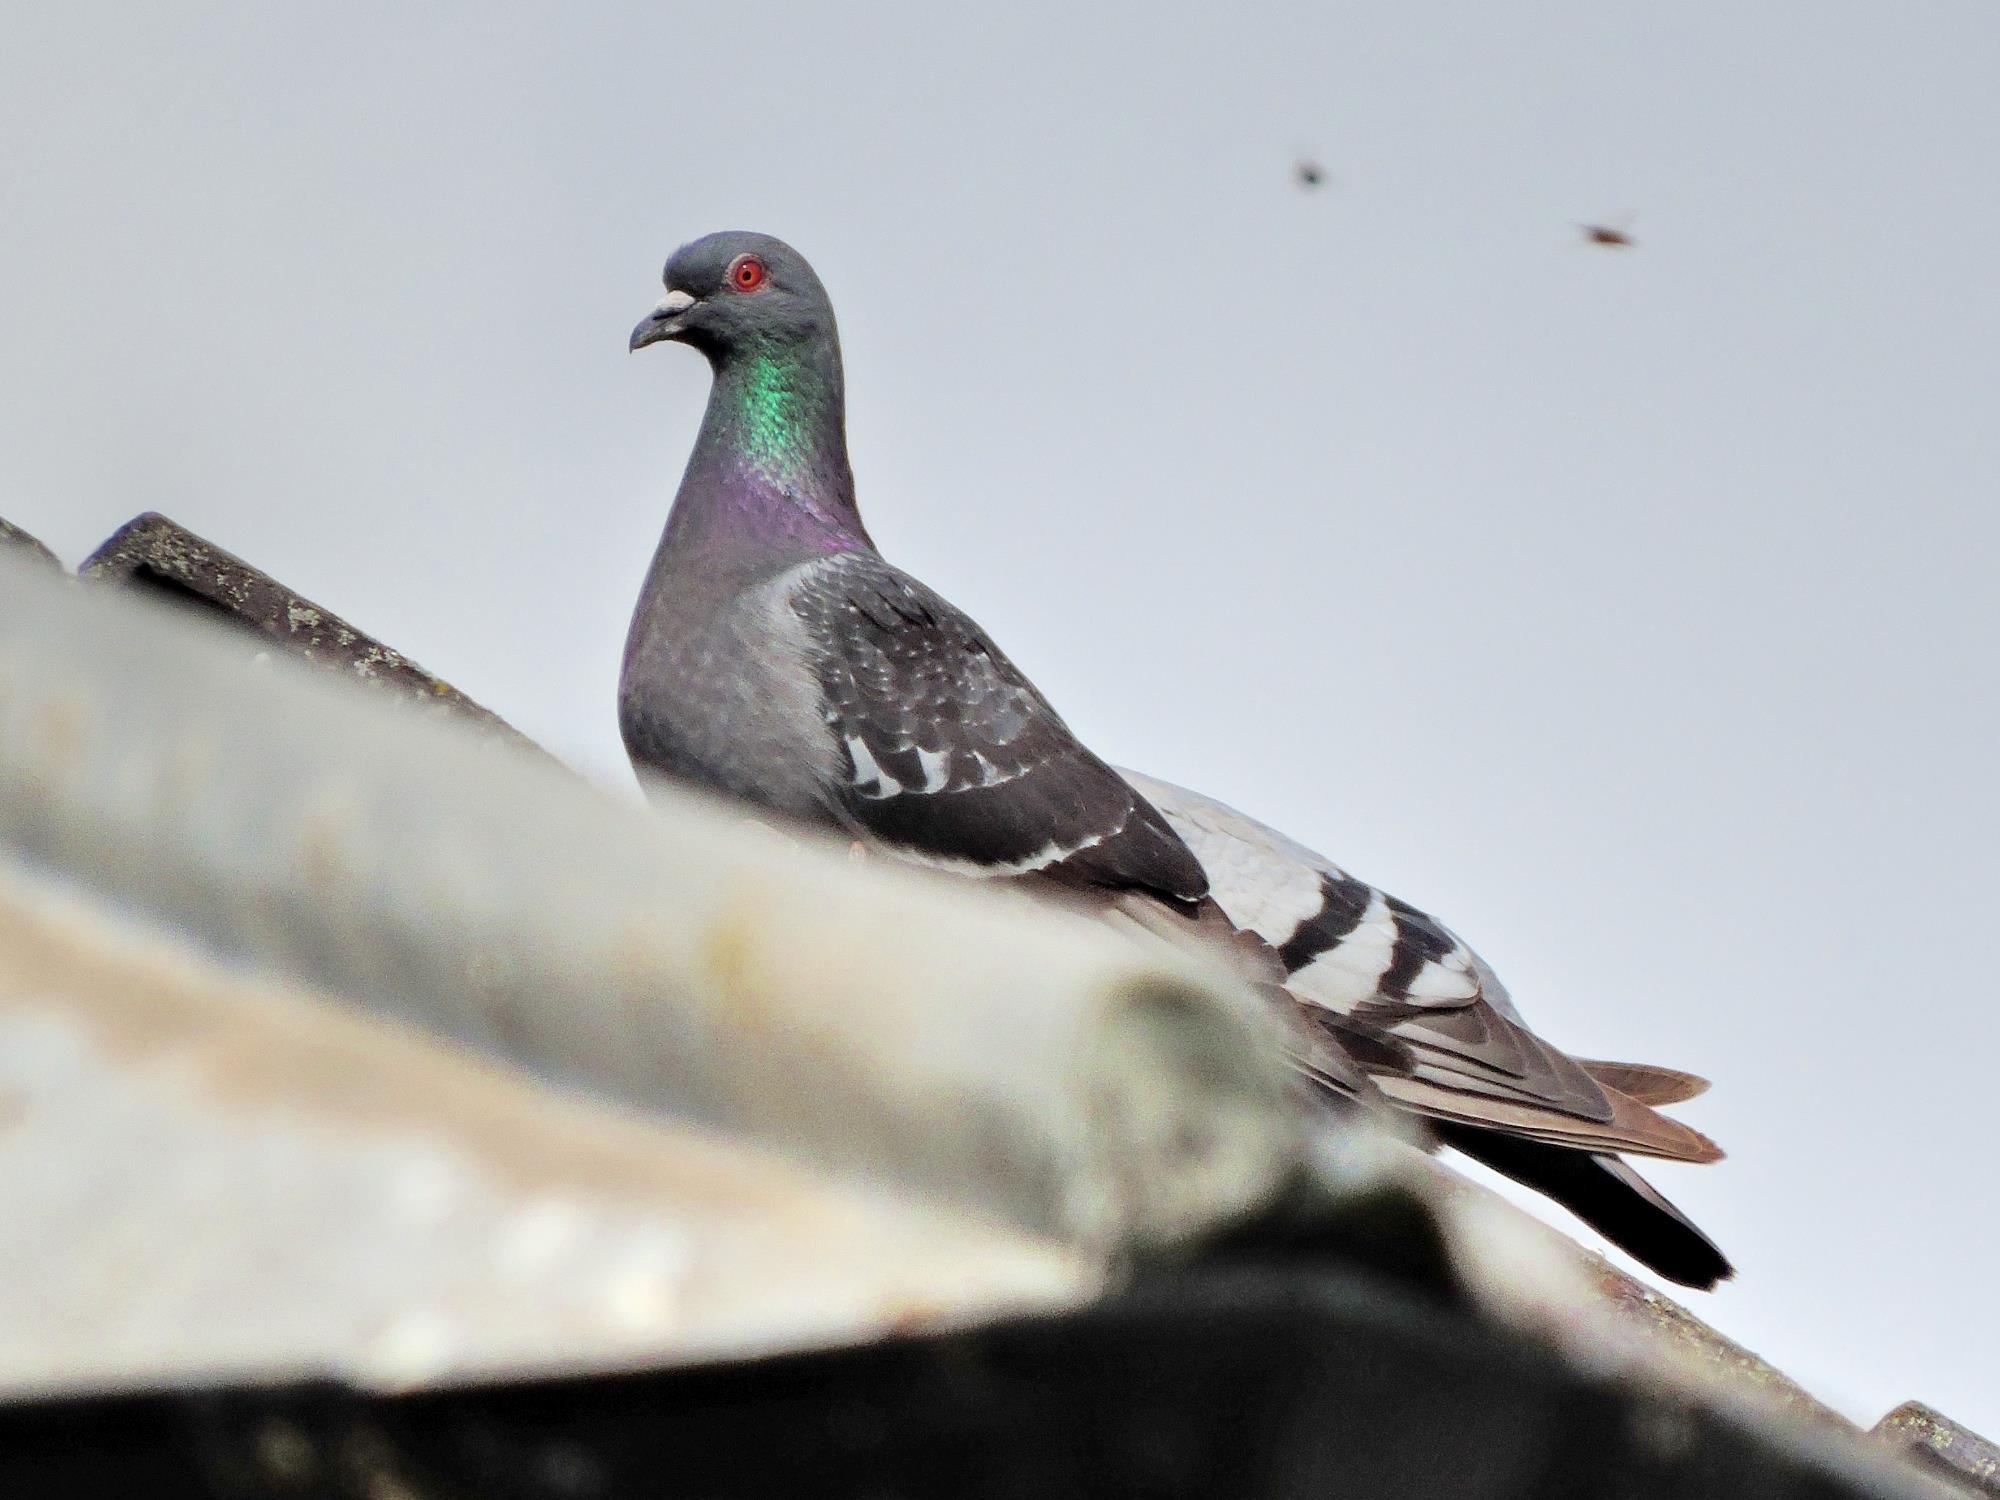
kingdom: Animalia
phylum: Chordata
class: Aves
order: Columbiformes
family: Columbidae
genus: Columba
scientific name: Columba livia
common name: Rock pigeon
